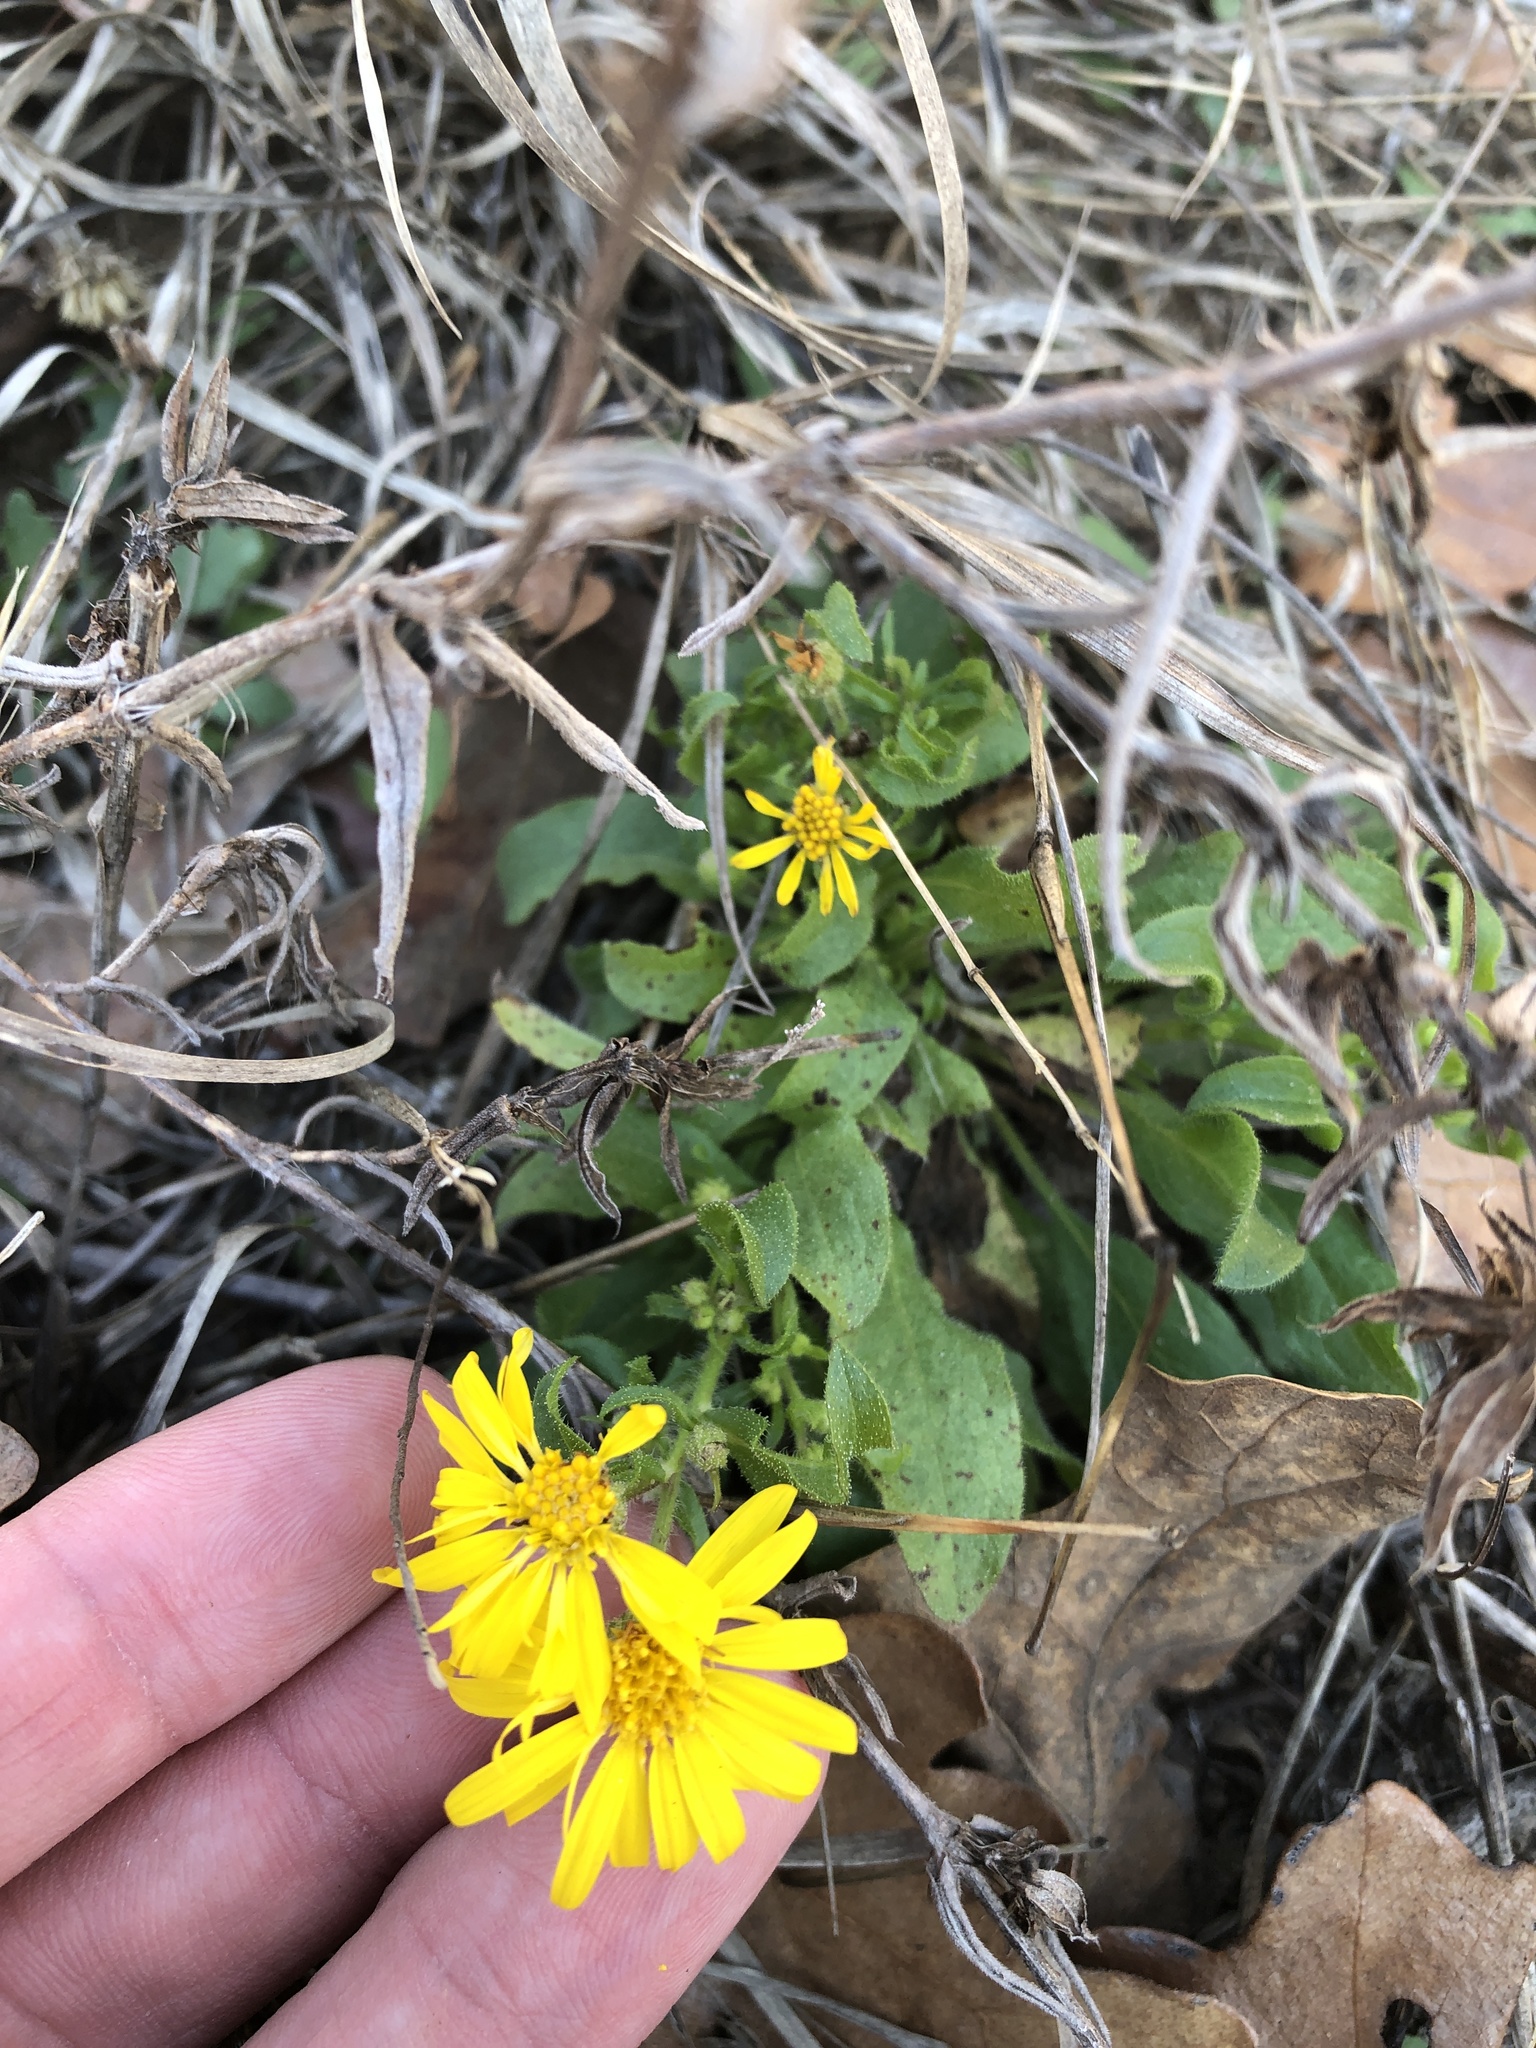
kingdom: Plantae
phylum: Tracheophyta
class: Magnoliopsida
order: Asterales
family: Asteraceae
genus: Heterotheca
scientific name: Heterotheca subaxillaris
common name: Camphorweed
